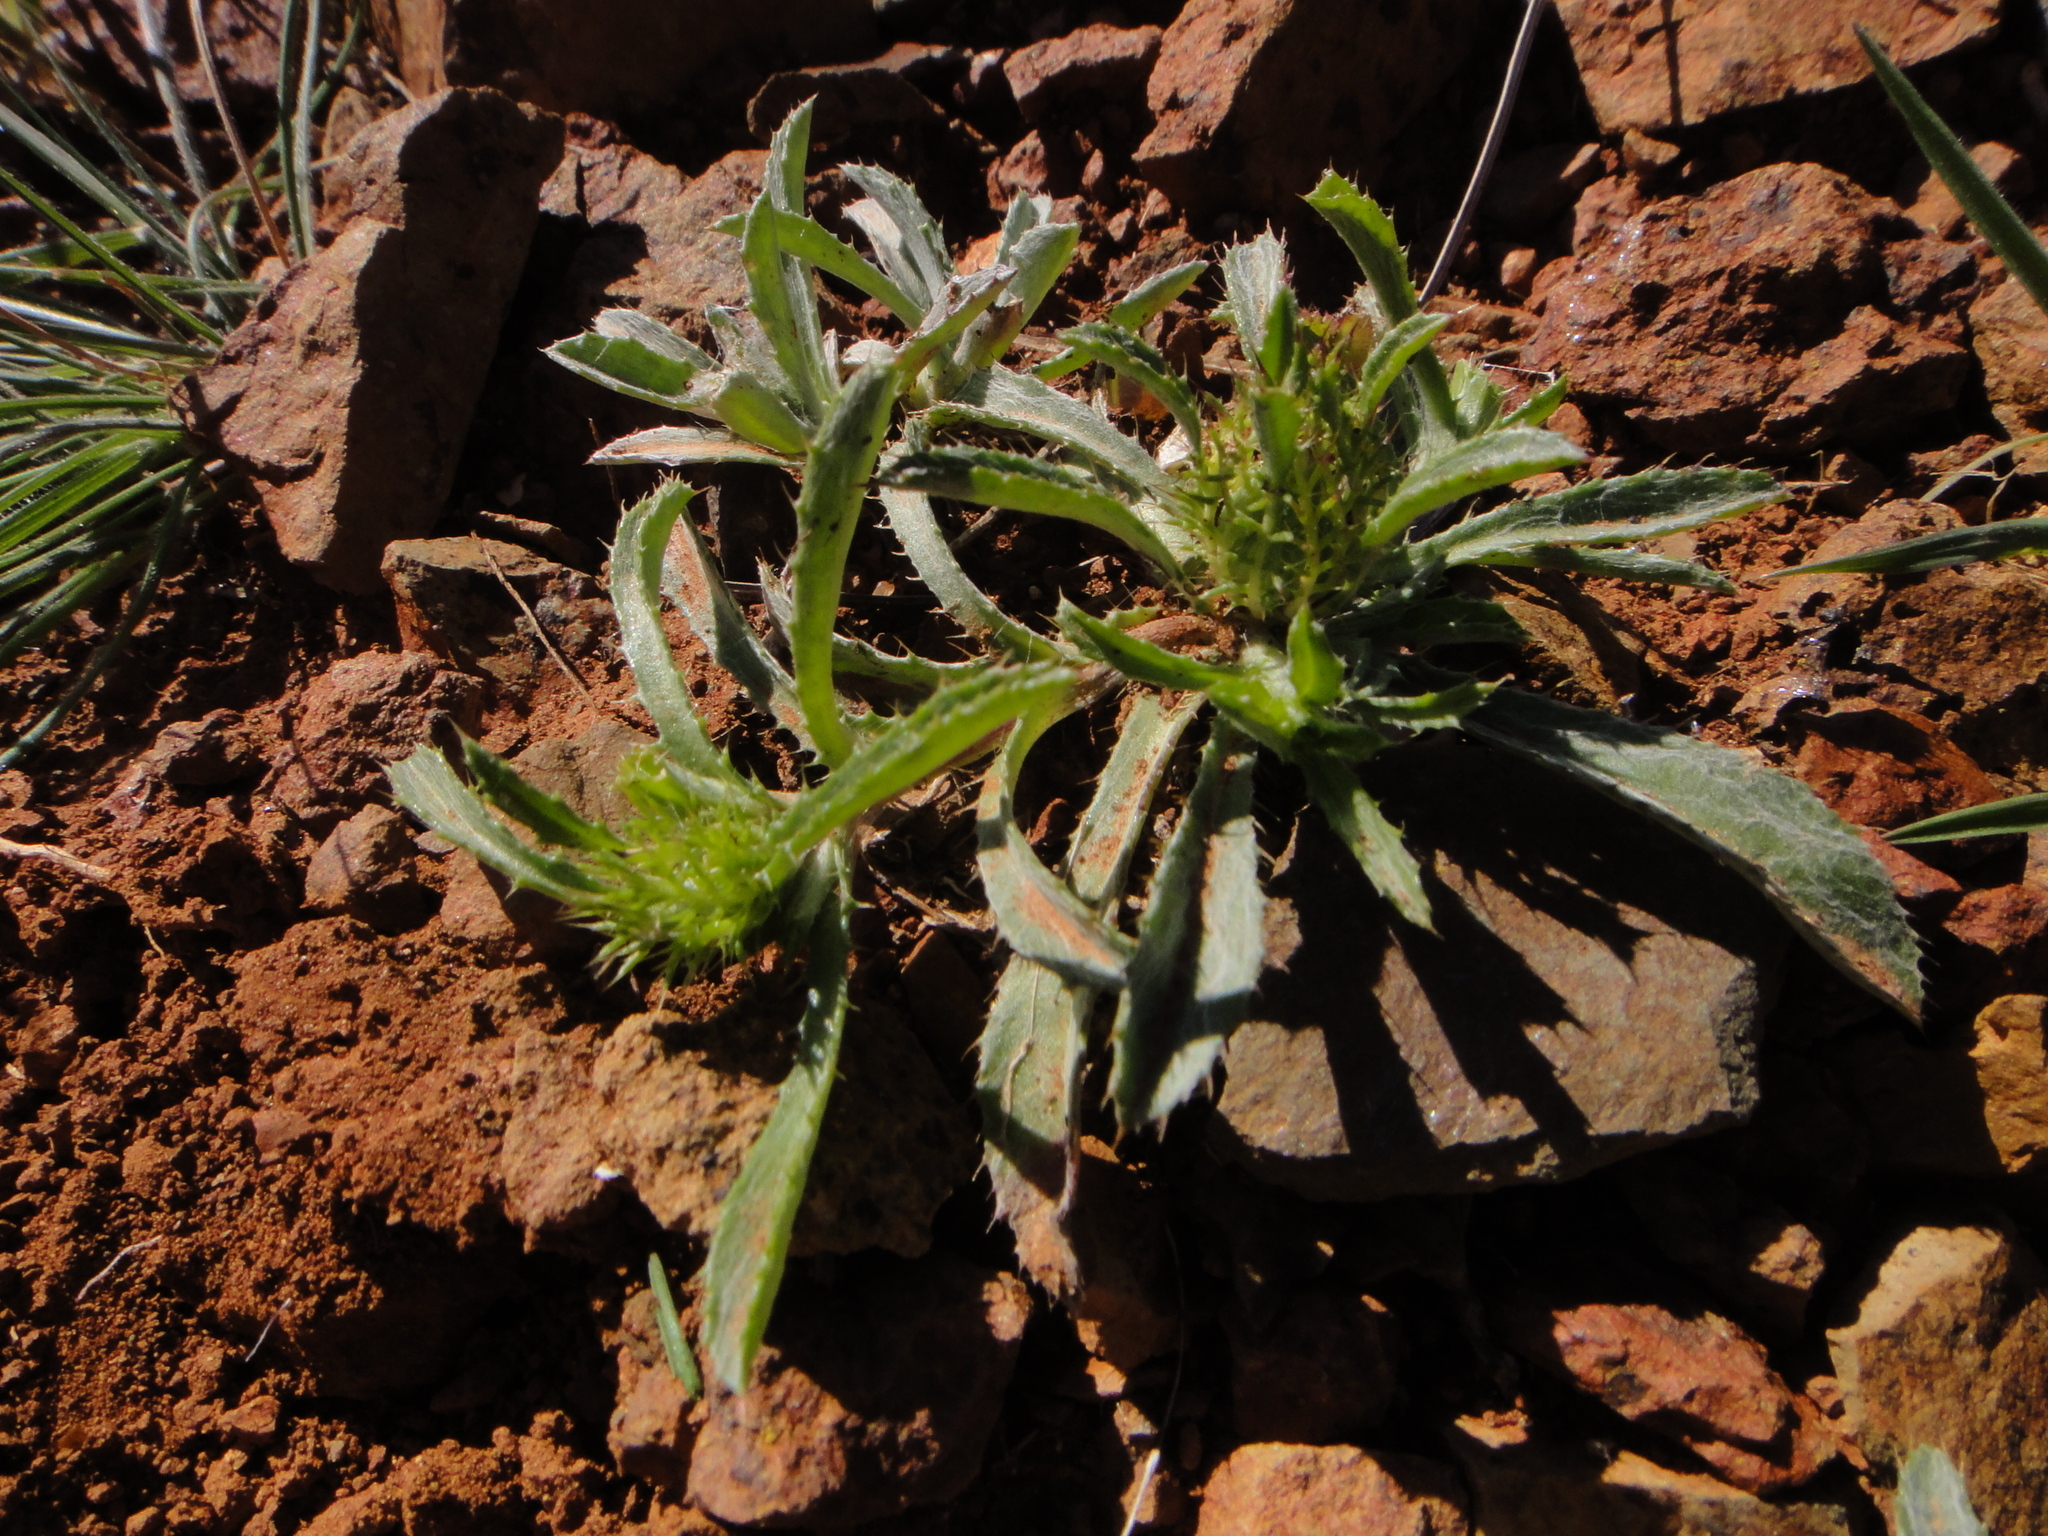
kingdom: Plantae
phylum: Tracheophyta
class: Magnoliopsida
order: Asterales
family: Asteraceae
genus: Atractylis
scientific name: Atractylis cancellata
